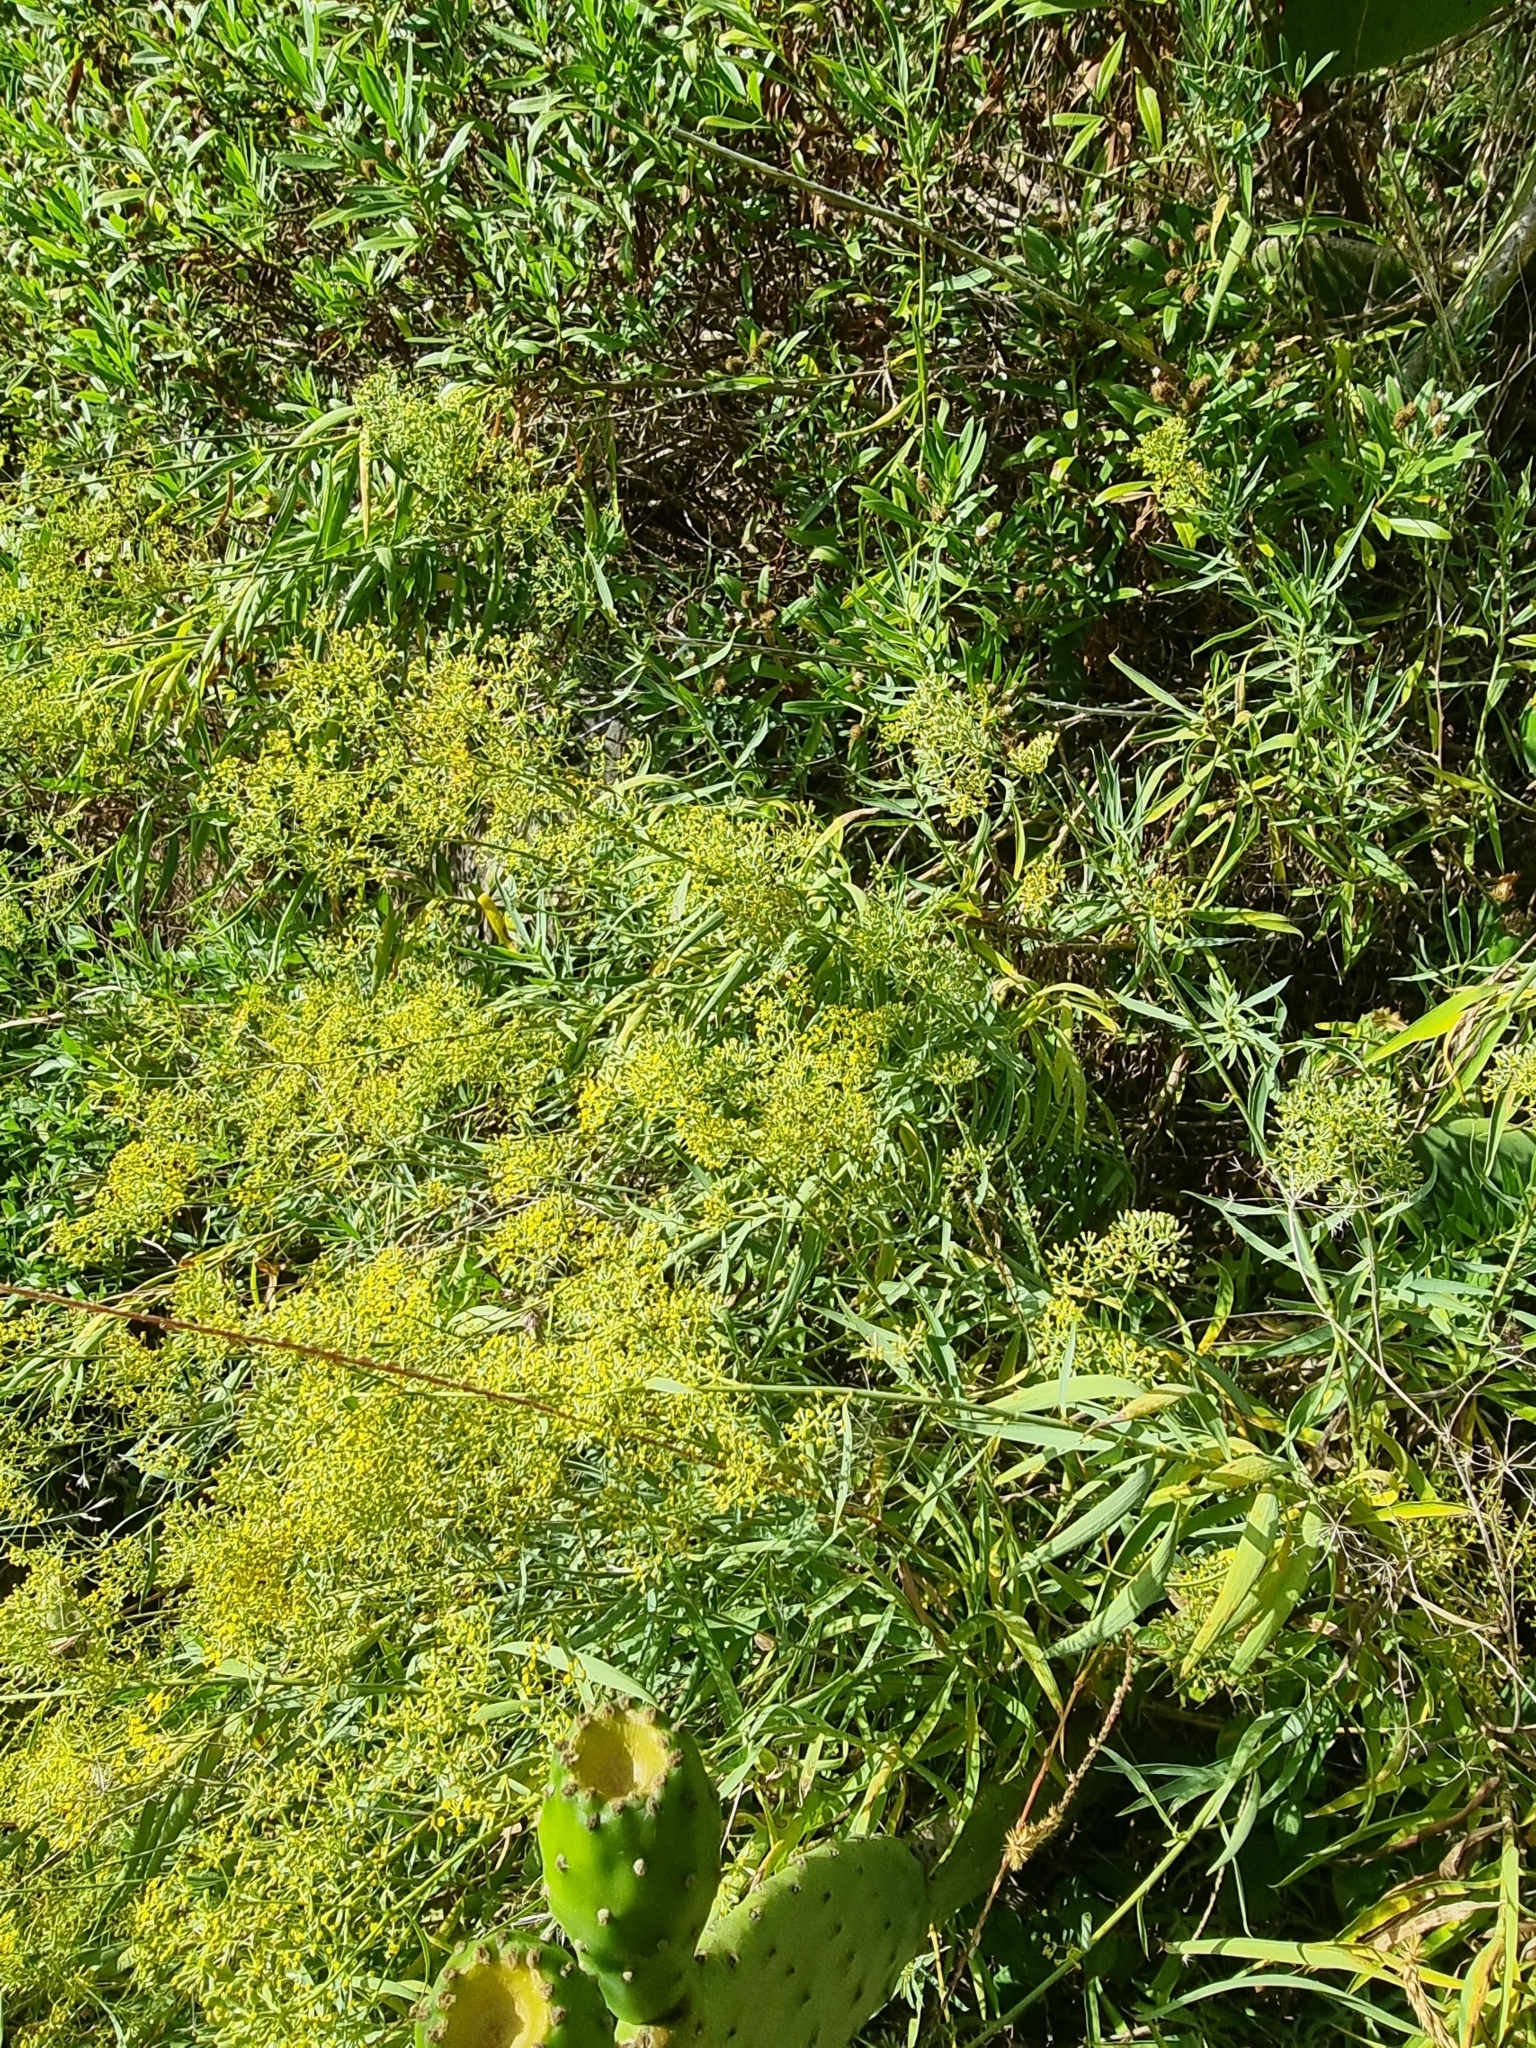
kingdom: Plantae
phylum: Tracheophyta
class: Magnoliopsida
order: Apiales
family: Apiaceae
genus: Bupleurum
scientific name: Bupleurum salicifolium
